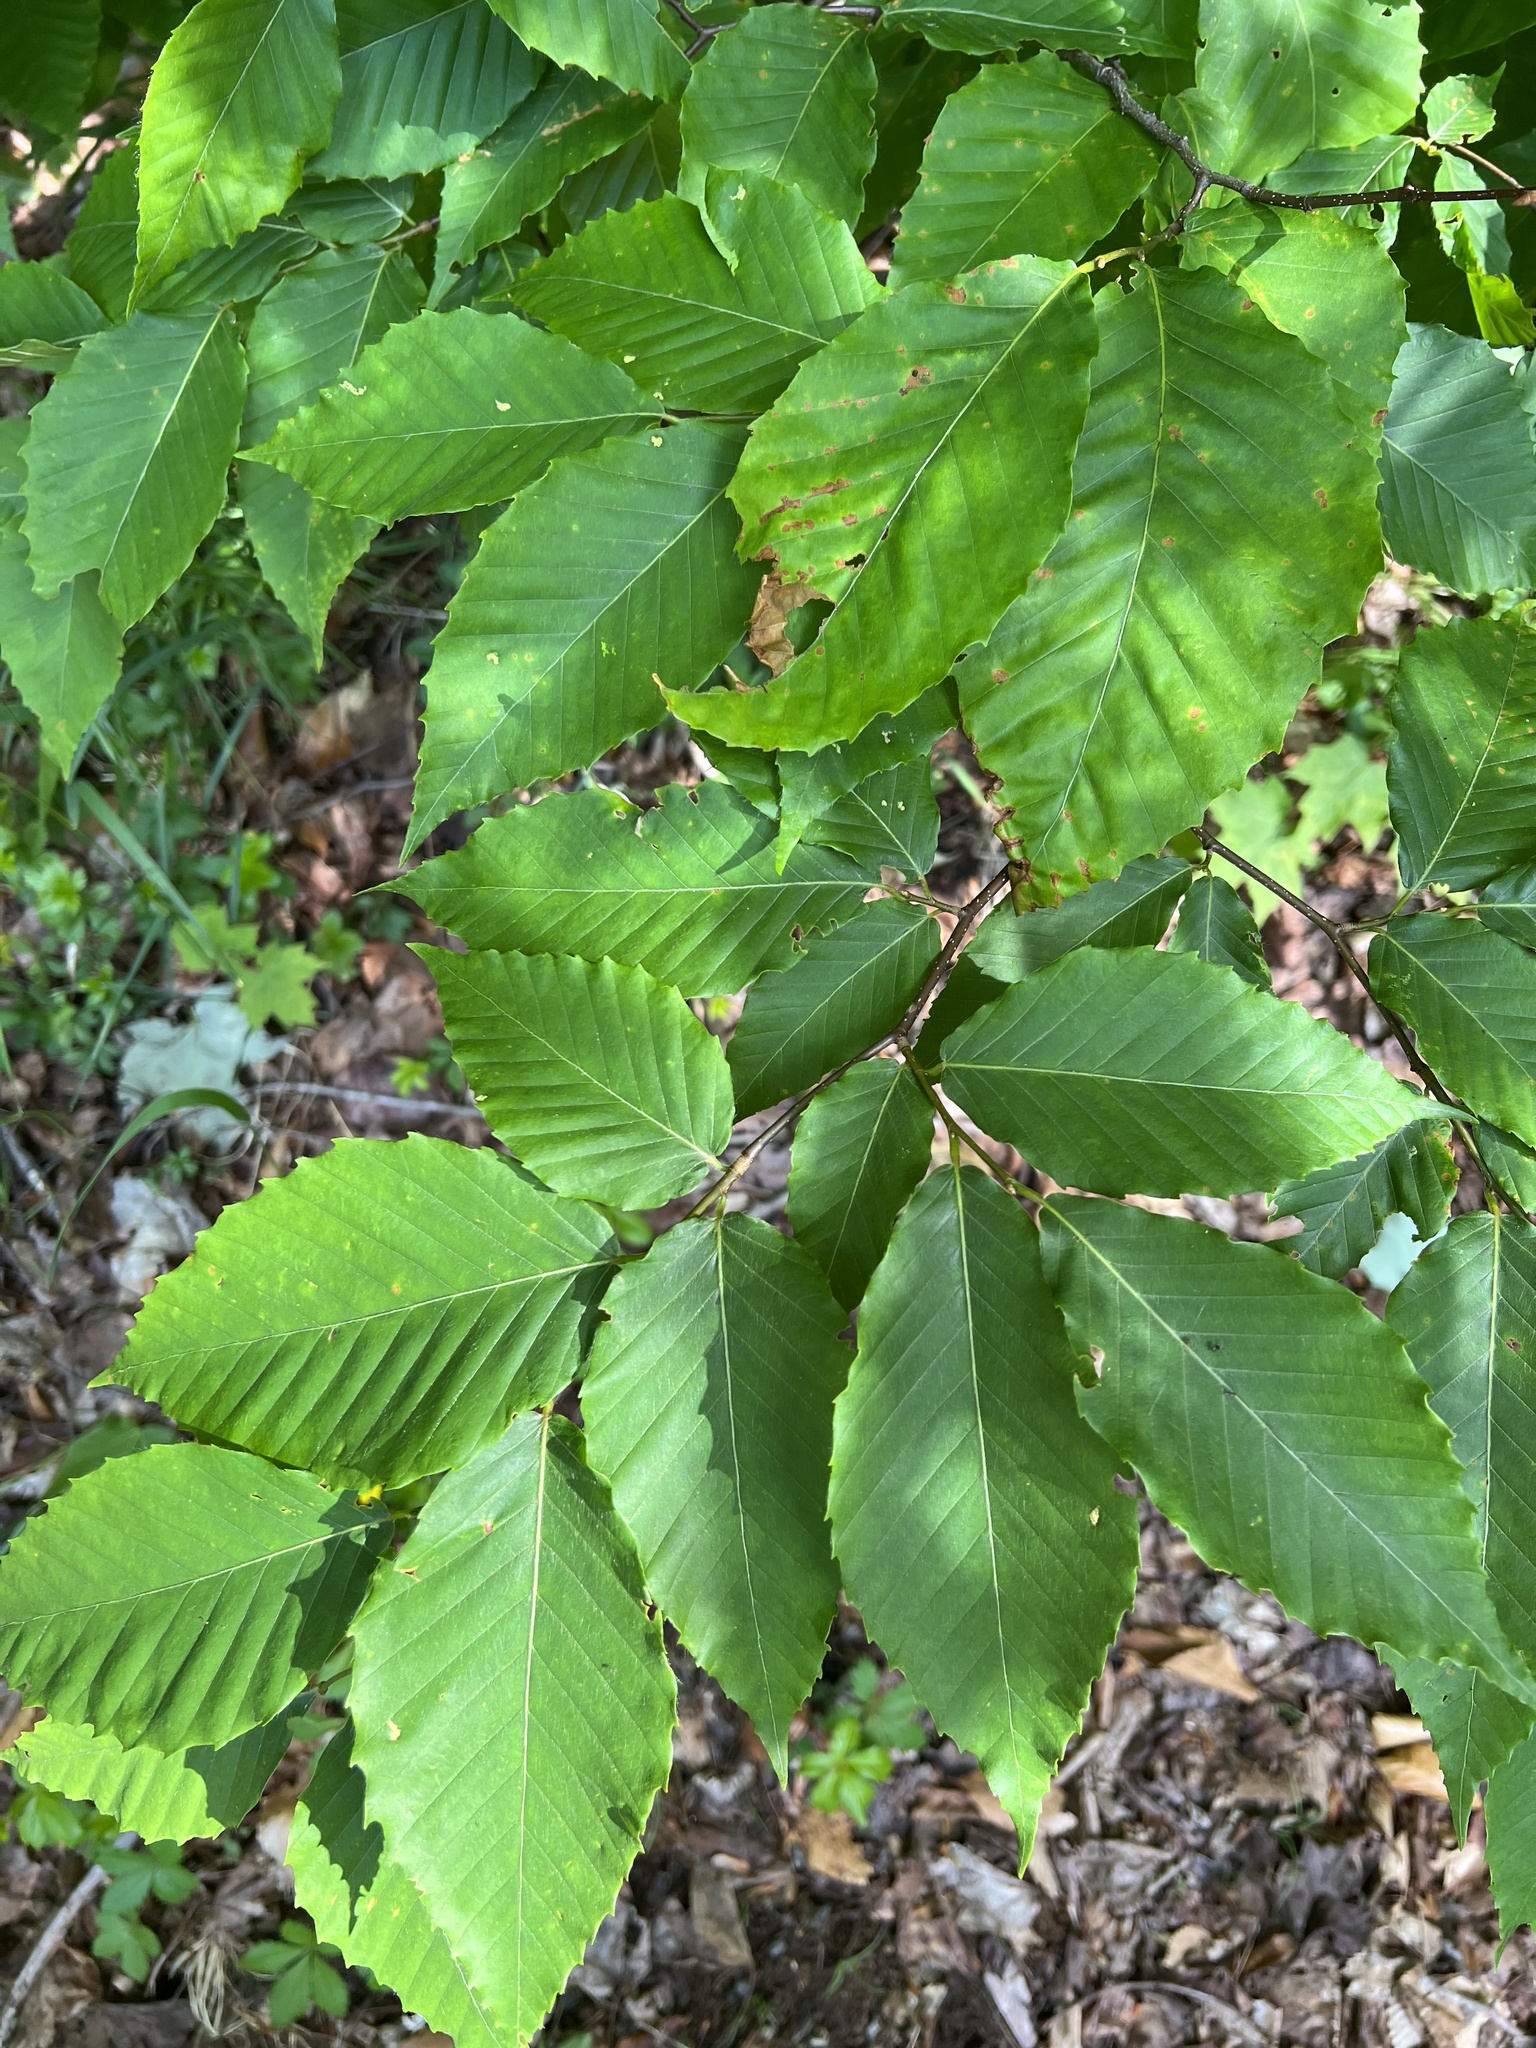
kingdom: Plantae
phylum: Tracheophyta
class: Magnoliopsida
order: Fagales
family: Fagaceae
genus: Fagus
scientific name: Fagus grandifolia
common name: American beech
